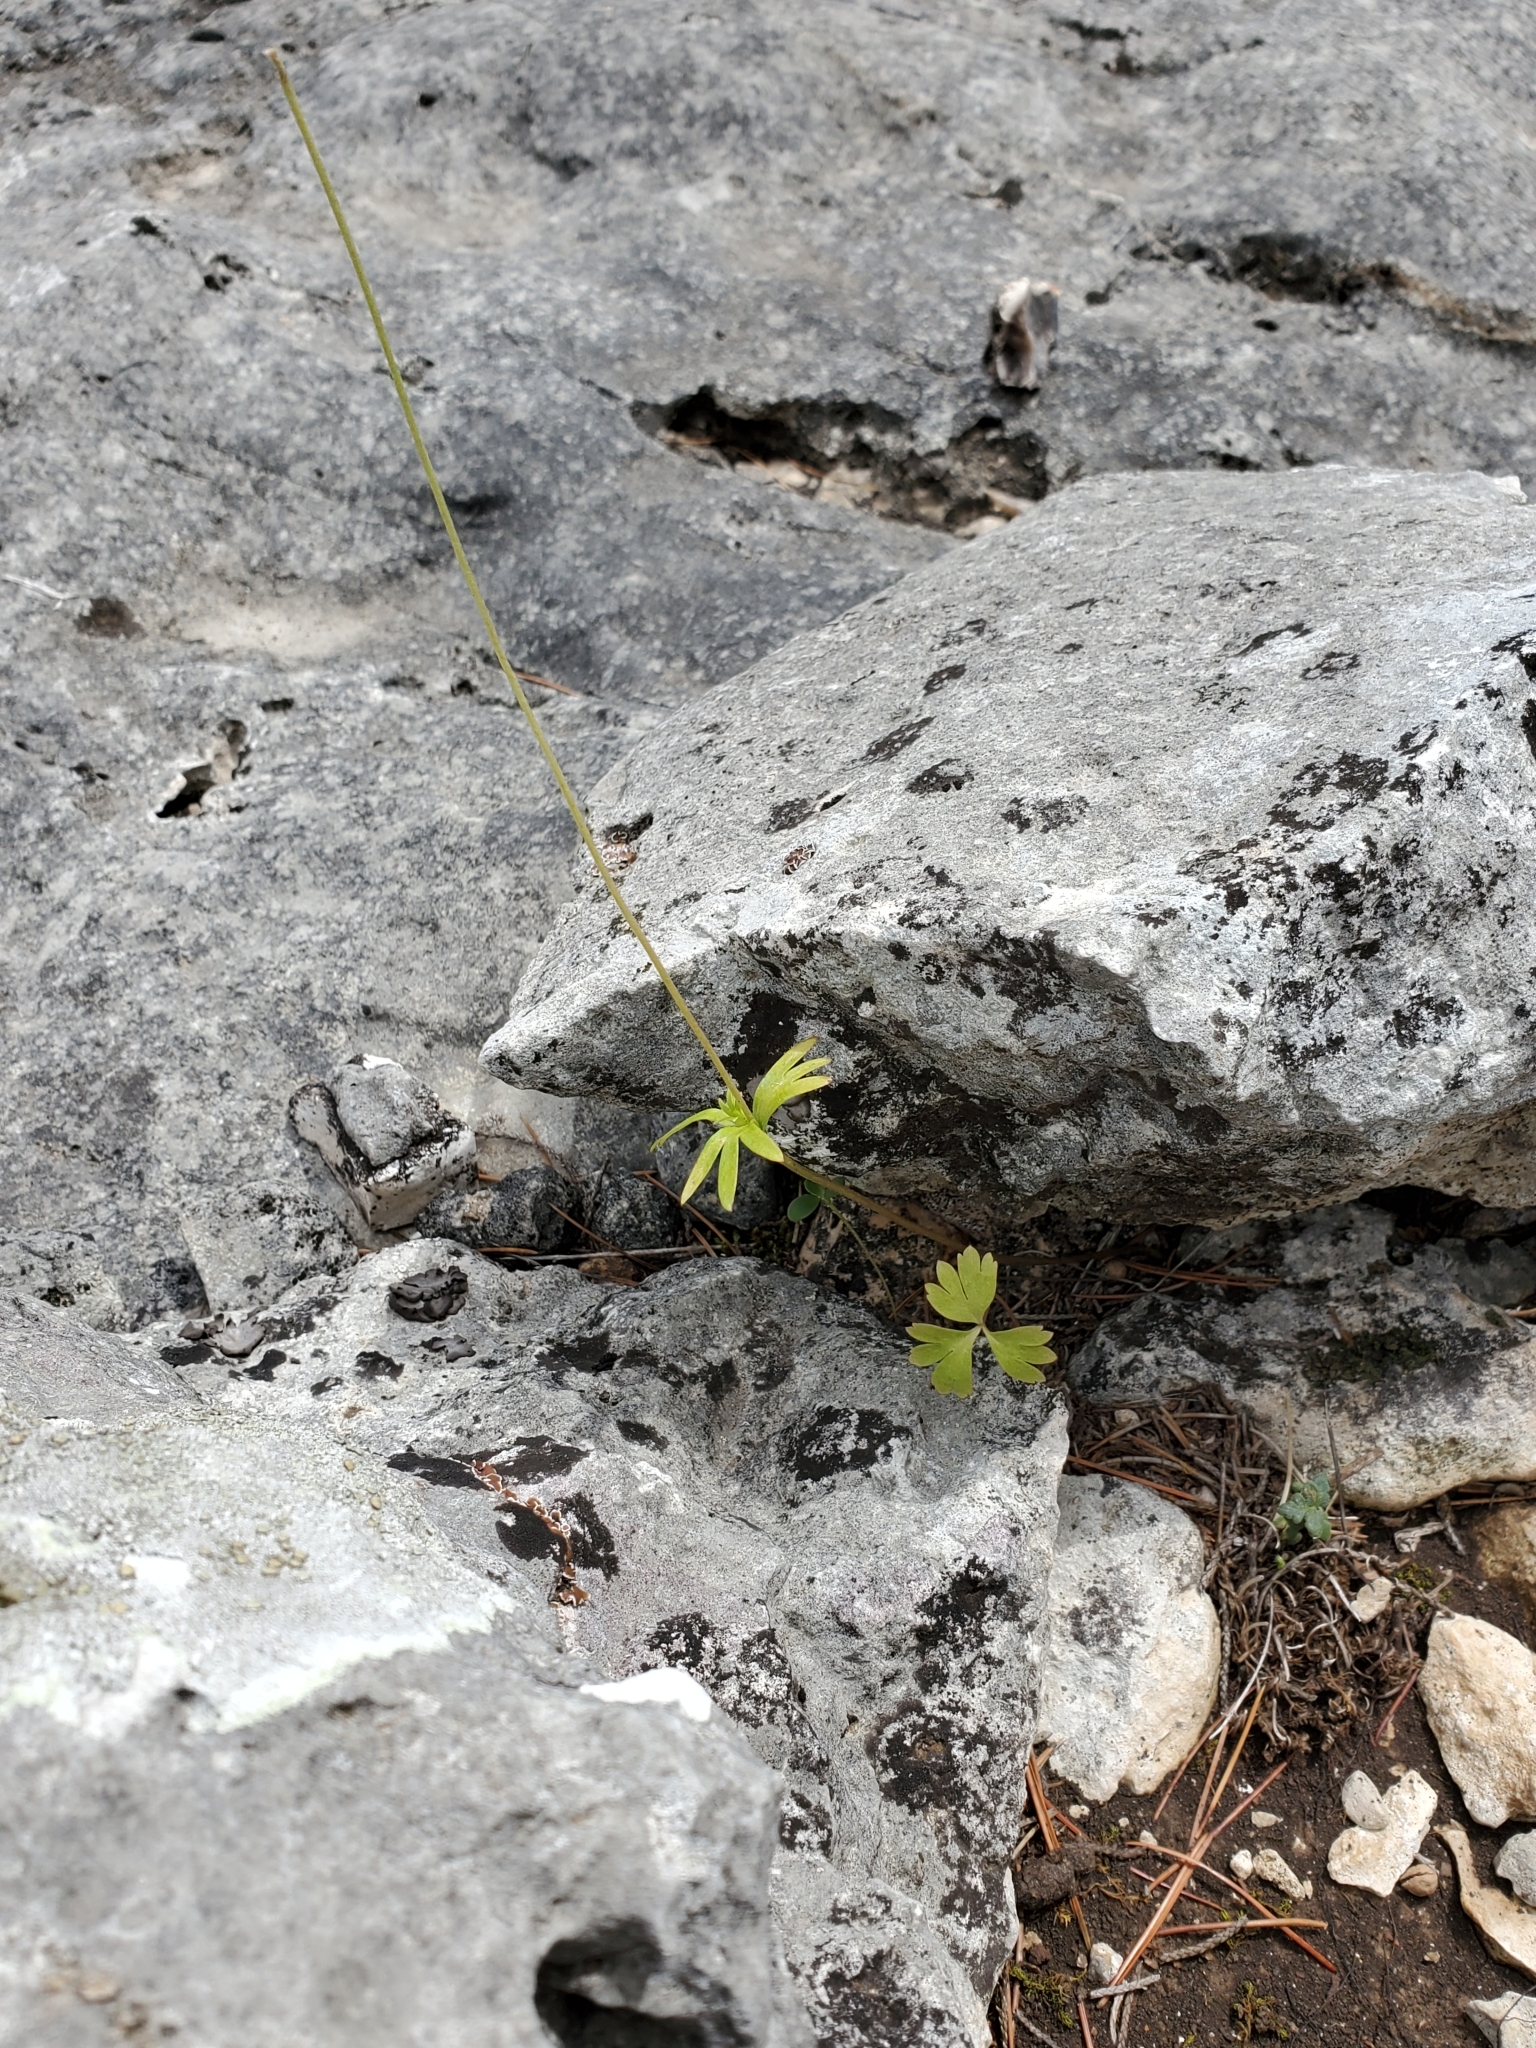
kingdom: Plantae
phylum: Tracheophyta
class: Magnoliopsida
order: Ranunculales
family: Ranunculaceae
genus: Anemone
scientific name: Anemone edwardsiana
